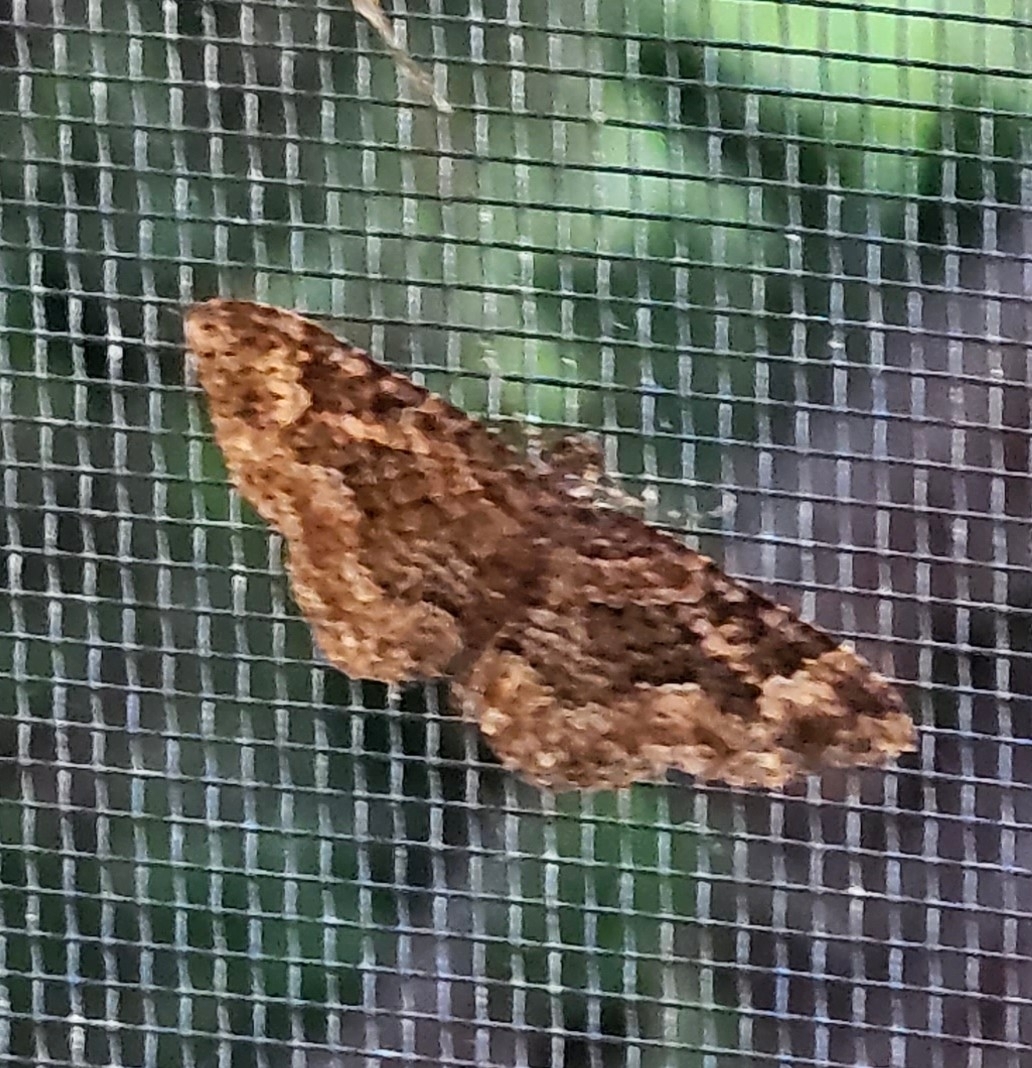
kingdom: Animalia
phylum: Arthropoda
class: Insecta
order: Lepidoptera
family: Geometridae
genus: Disclisioprocta
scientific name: Disclisioprocta stellata
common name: Somber carpet
